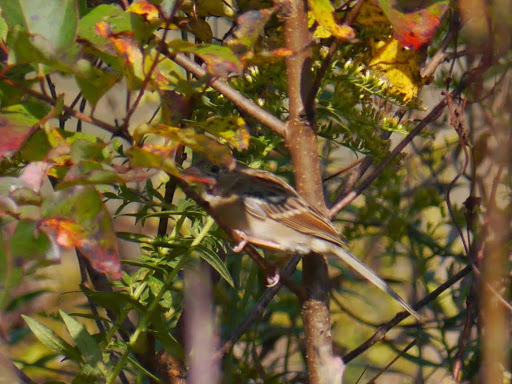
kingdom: Animalia
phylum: Chordata
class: Aves
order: Passeriformes
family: Passerellidae
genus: Spizella
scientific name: Spizella pusilla
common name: Field sparrow
